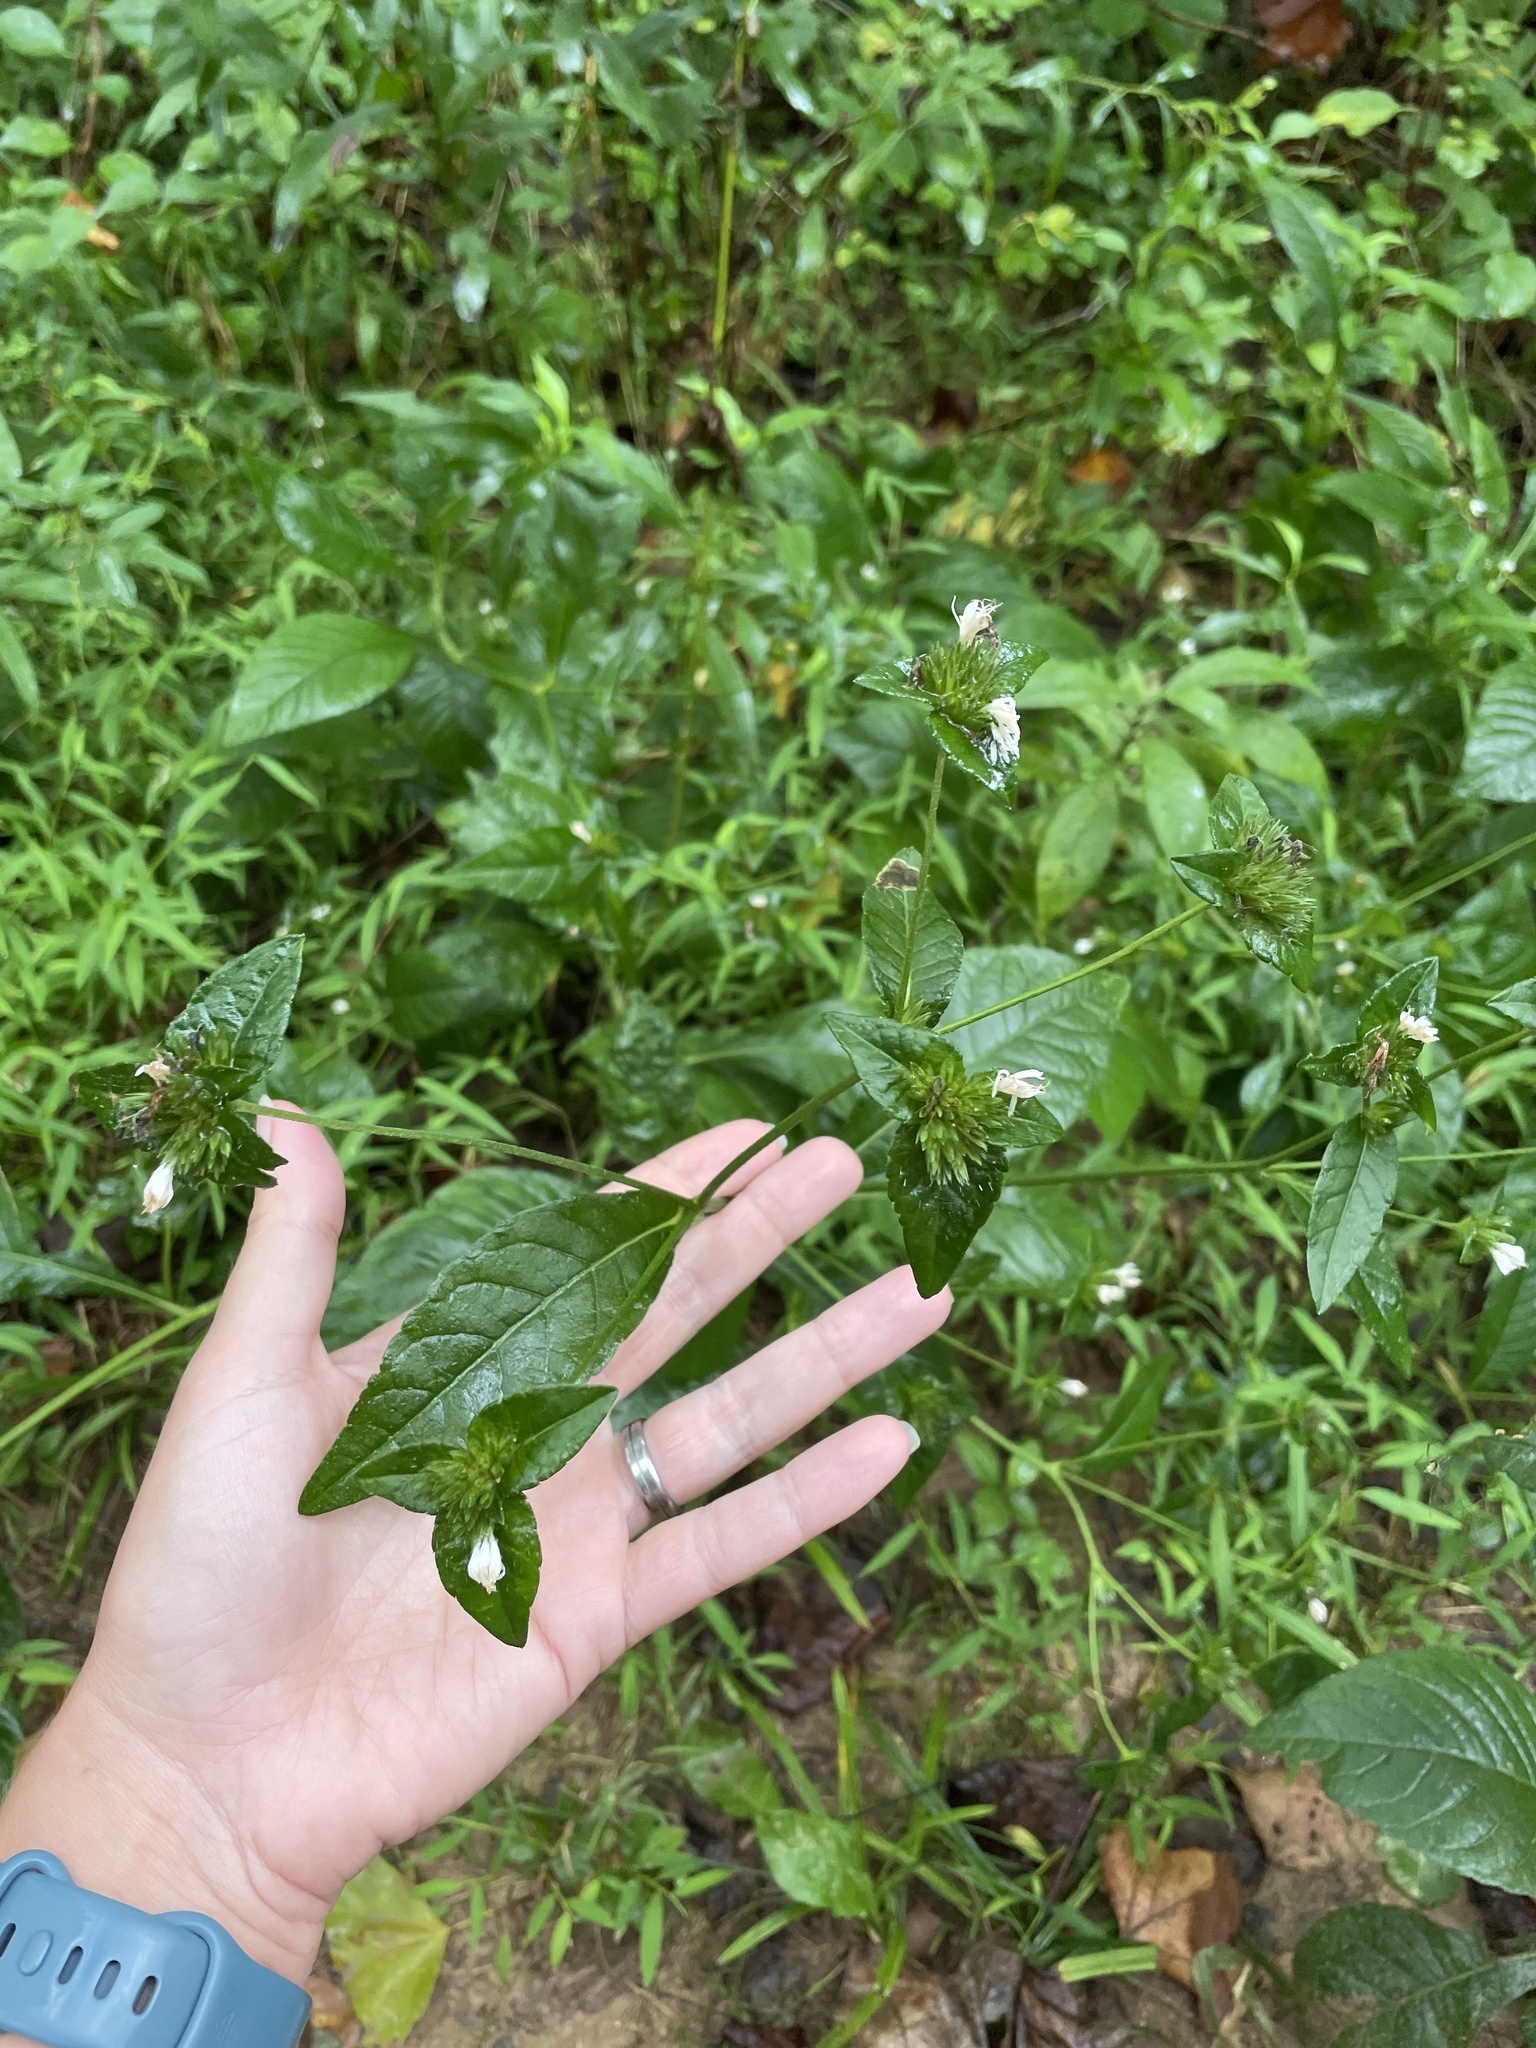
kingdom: Plantae
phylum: Tracheophyta
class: Magnoliopsida
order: Asterales
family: Asteraceae
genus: Elephantopus
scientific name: Elephantopus carolinianus
